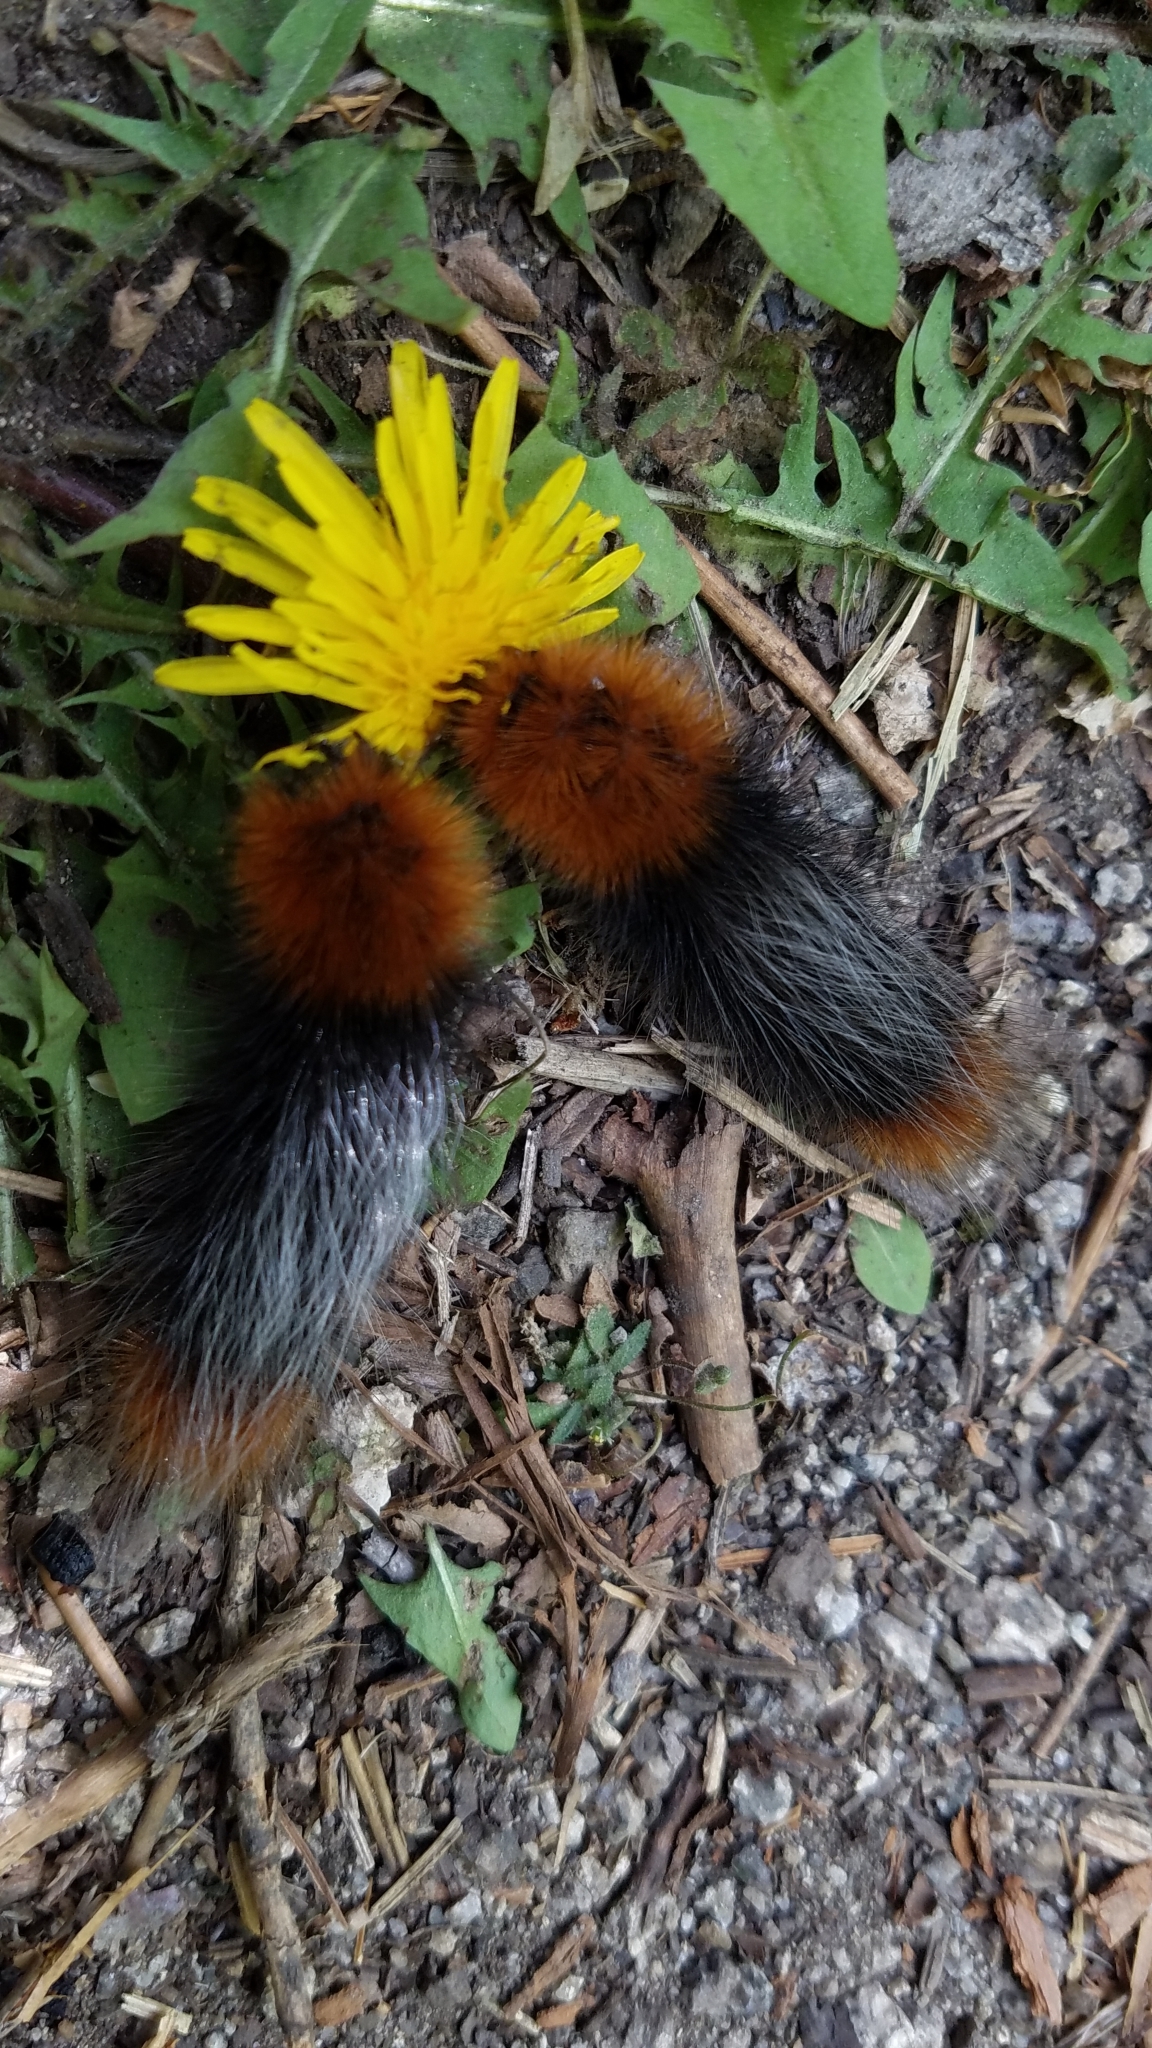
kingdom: Animalia
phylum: Arthropoda
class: Insecta
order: Lepidoptera
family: Erebidae
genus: Arctia
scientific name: Arctia tigrina
